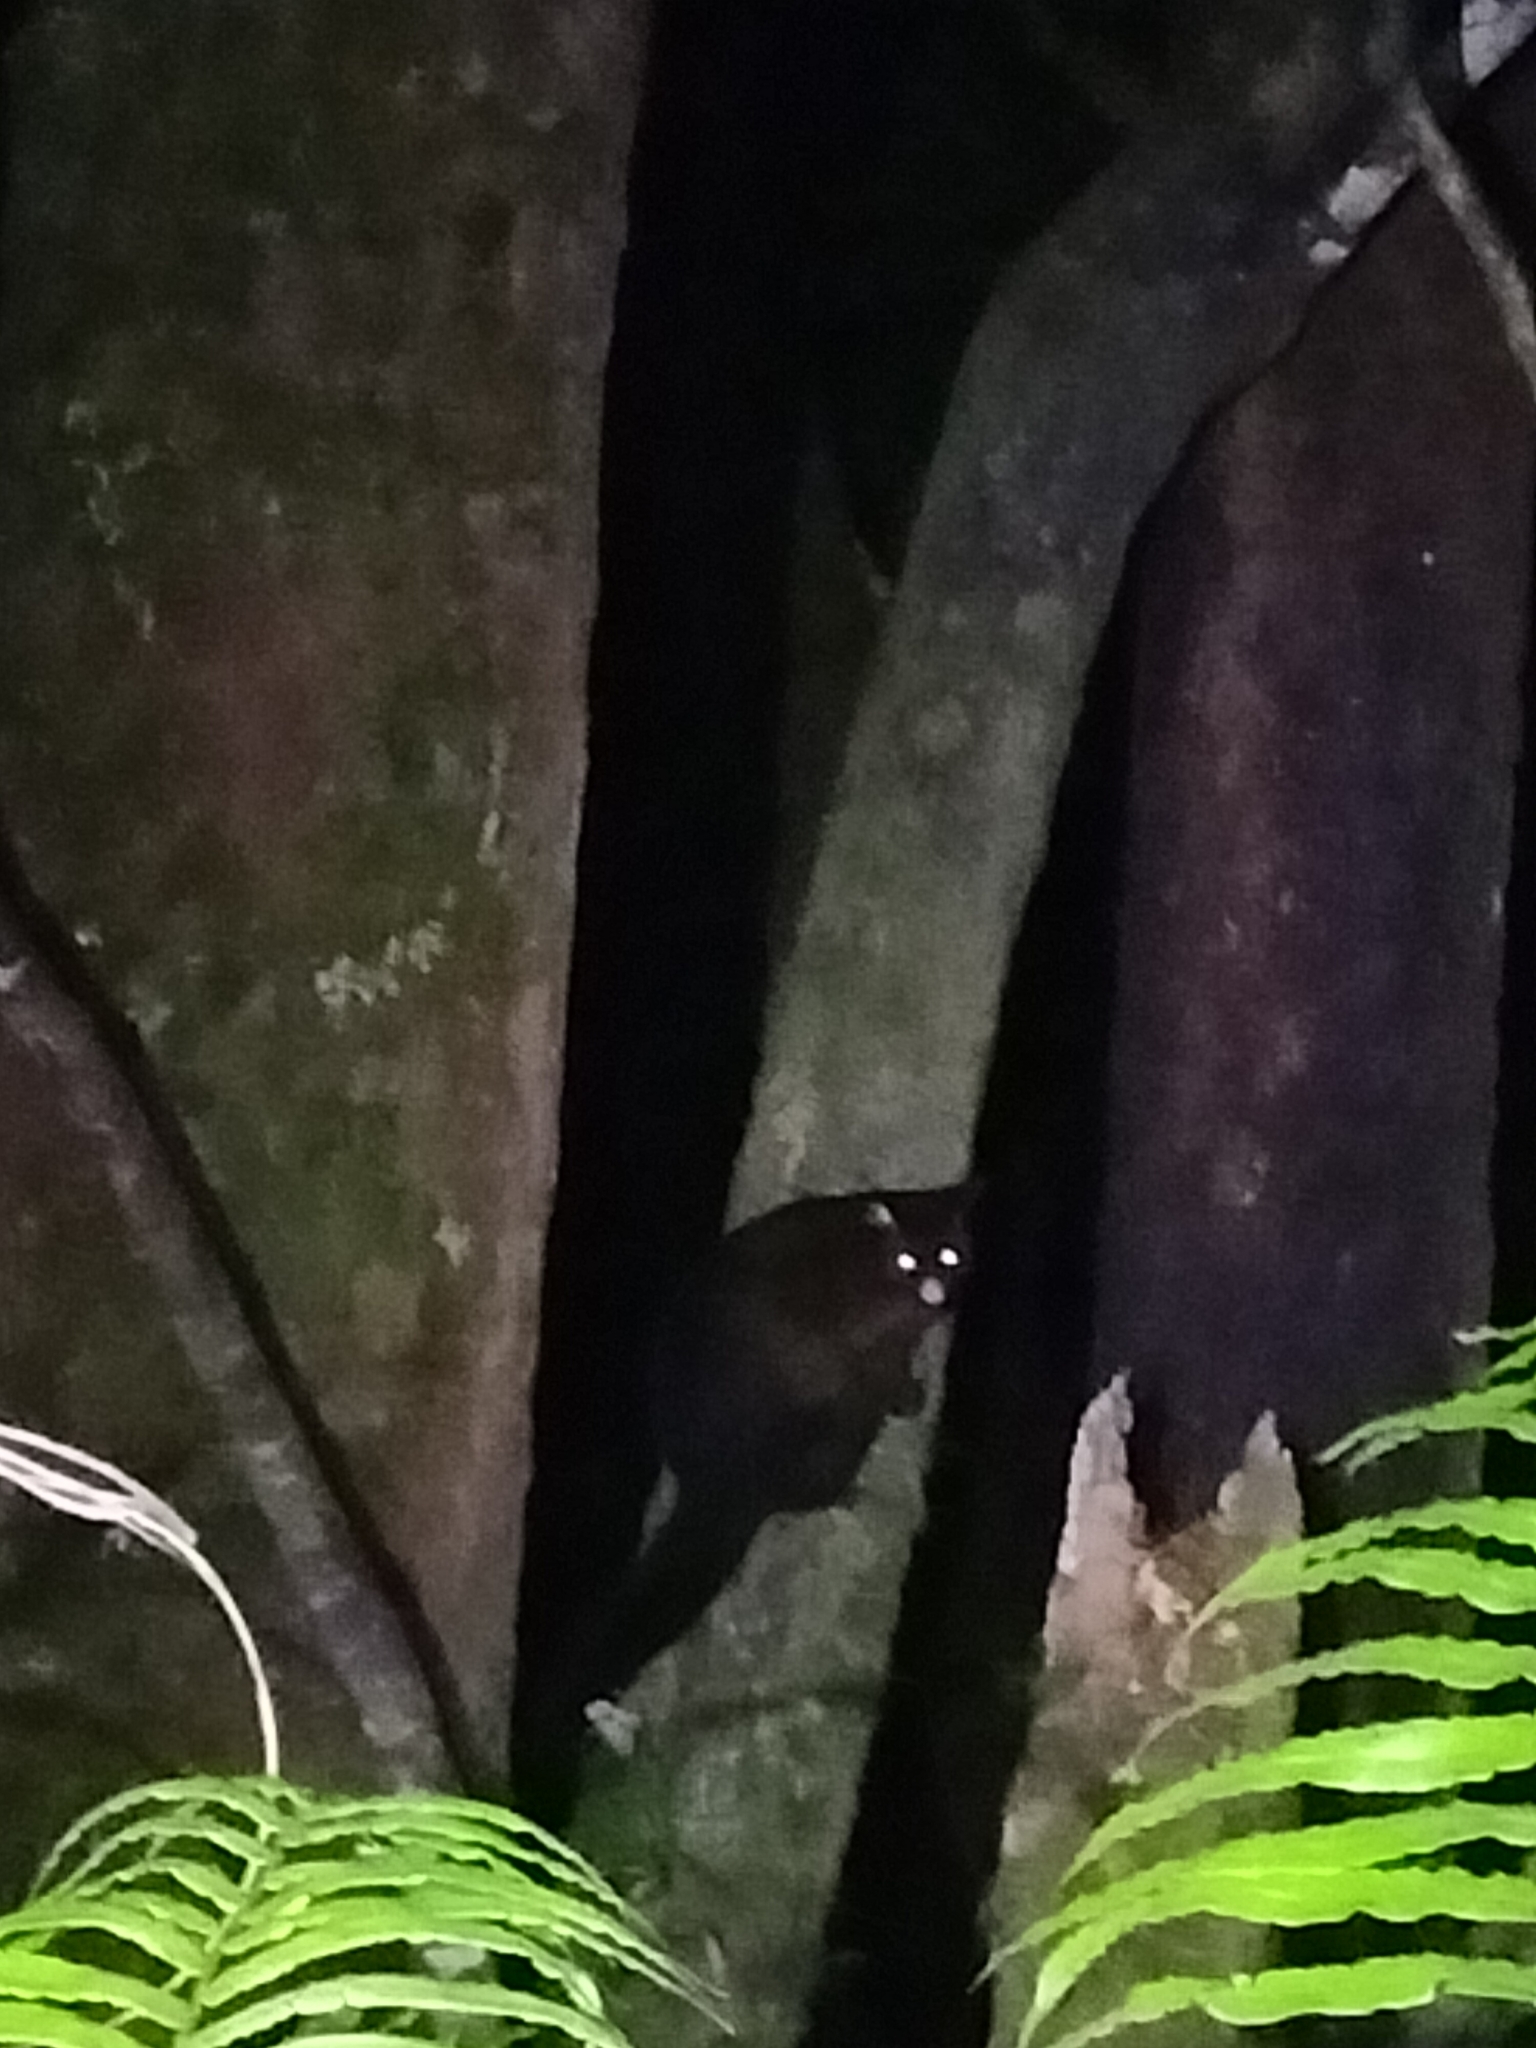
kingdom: Animalia
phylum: Chordata
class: Mammalia
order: Diprotodontia
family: Phalangeridae
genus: Trichosurus
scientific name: Trichosurus vulpecula
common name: Common brushtail
